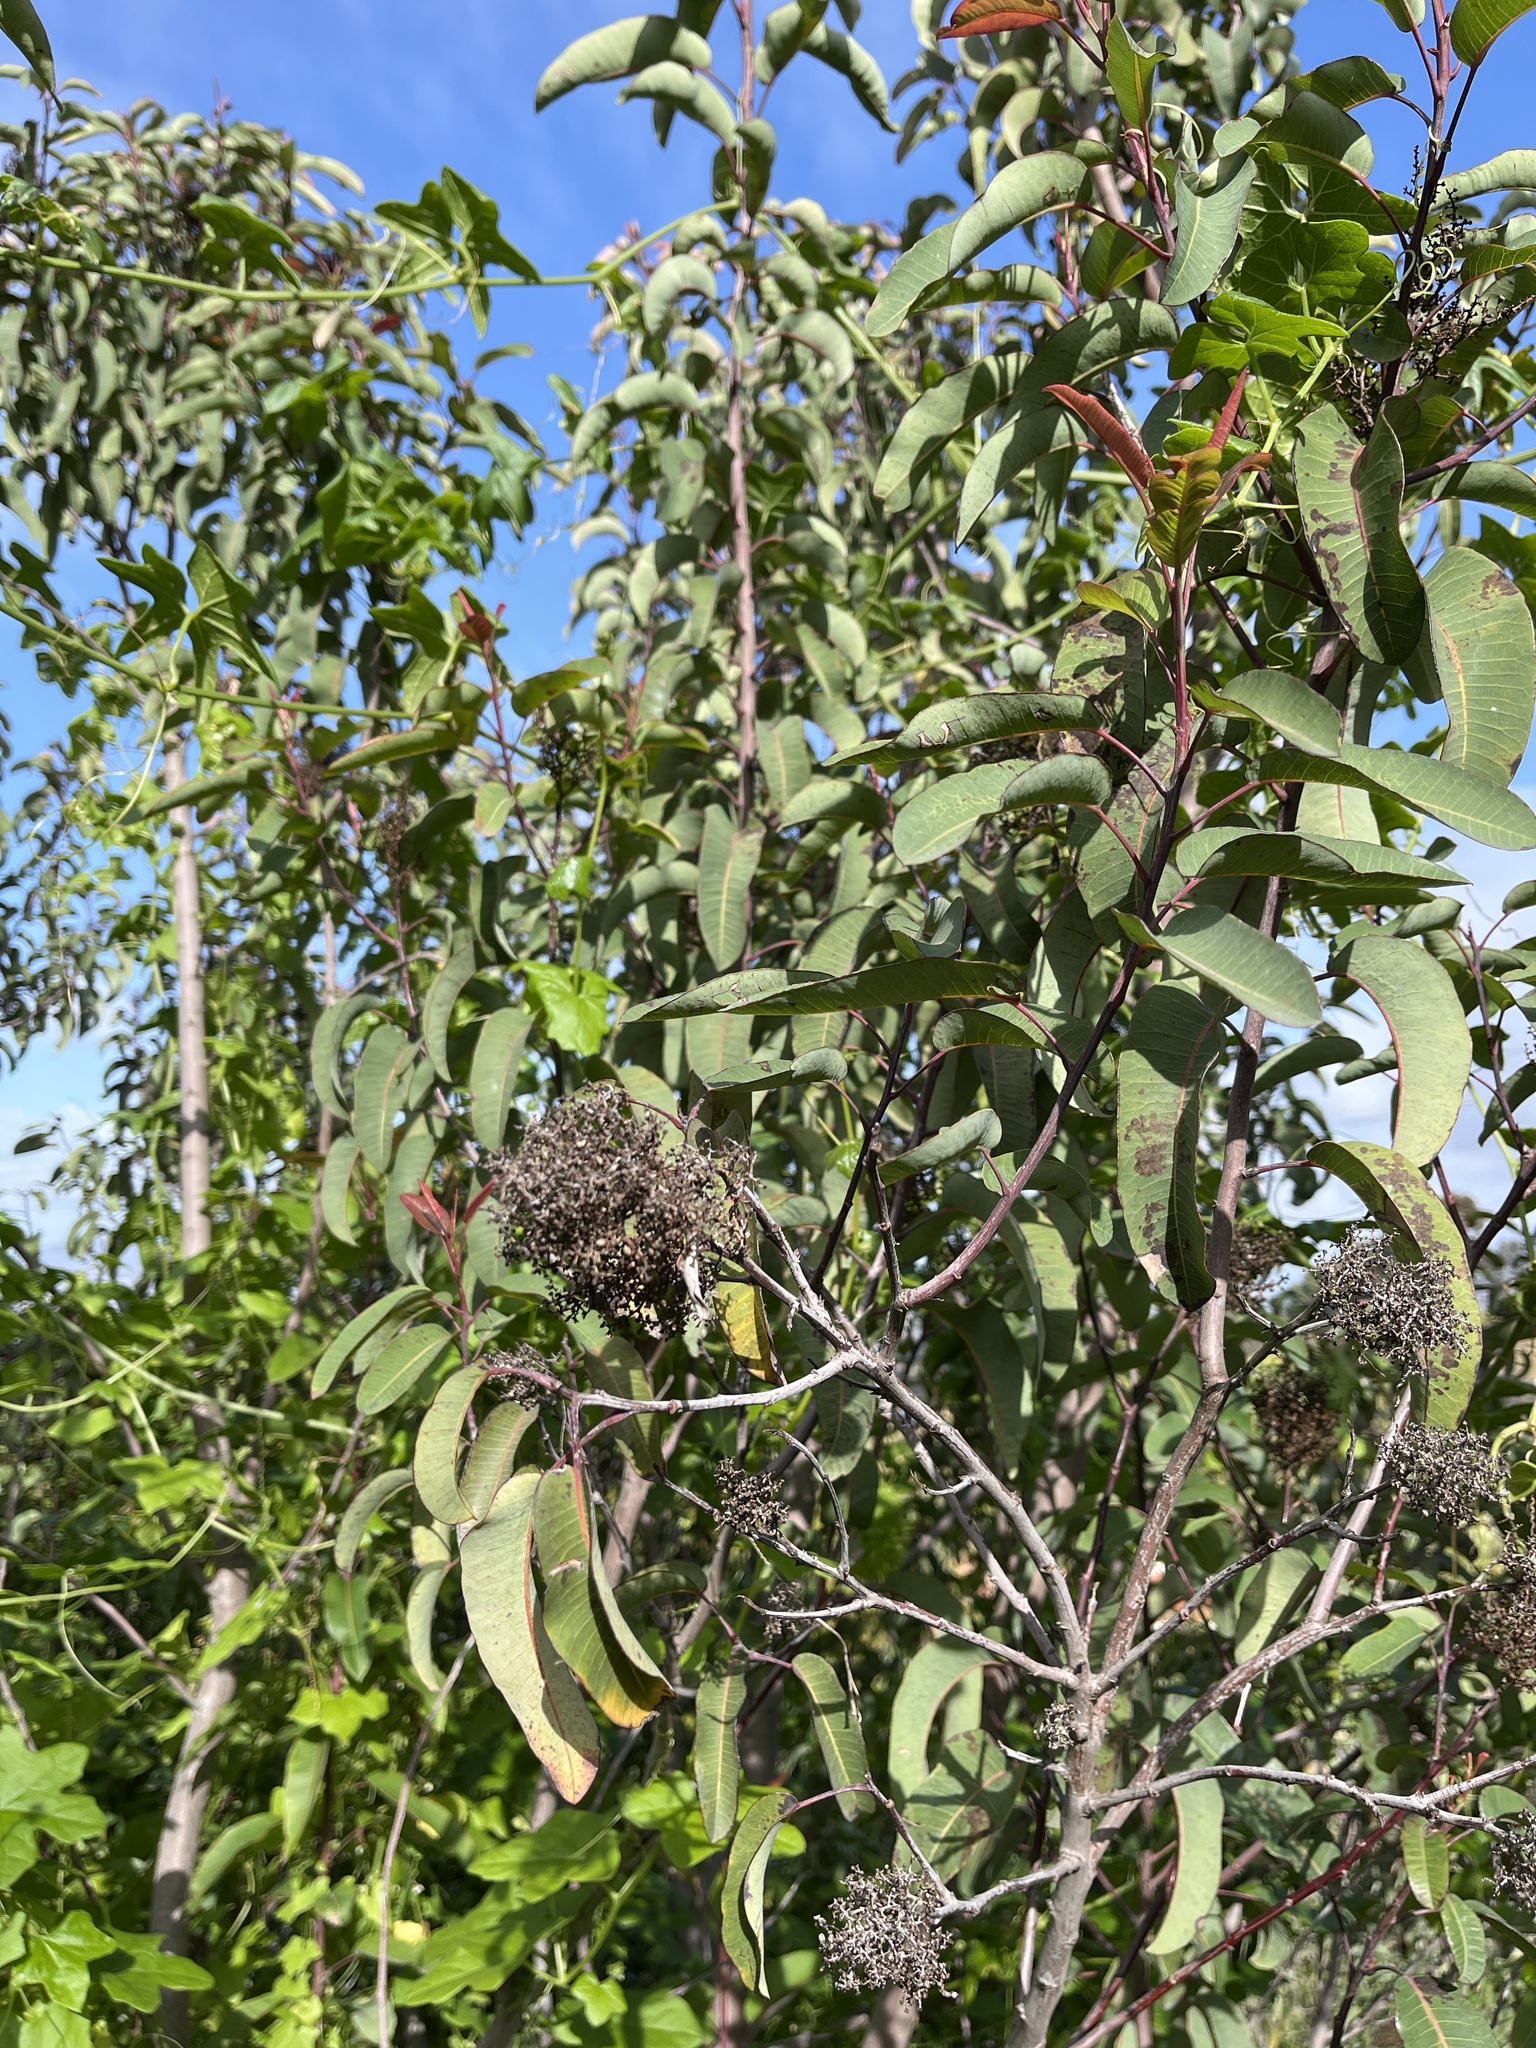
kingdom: Plantae
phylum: Tracheophyta
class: Magnoliopsida
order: Sapindales
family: Anacardiaceae
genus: Malosma
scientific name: Malosma laurina
